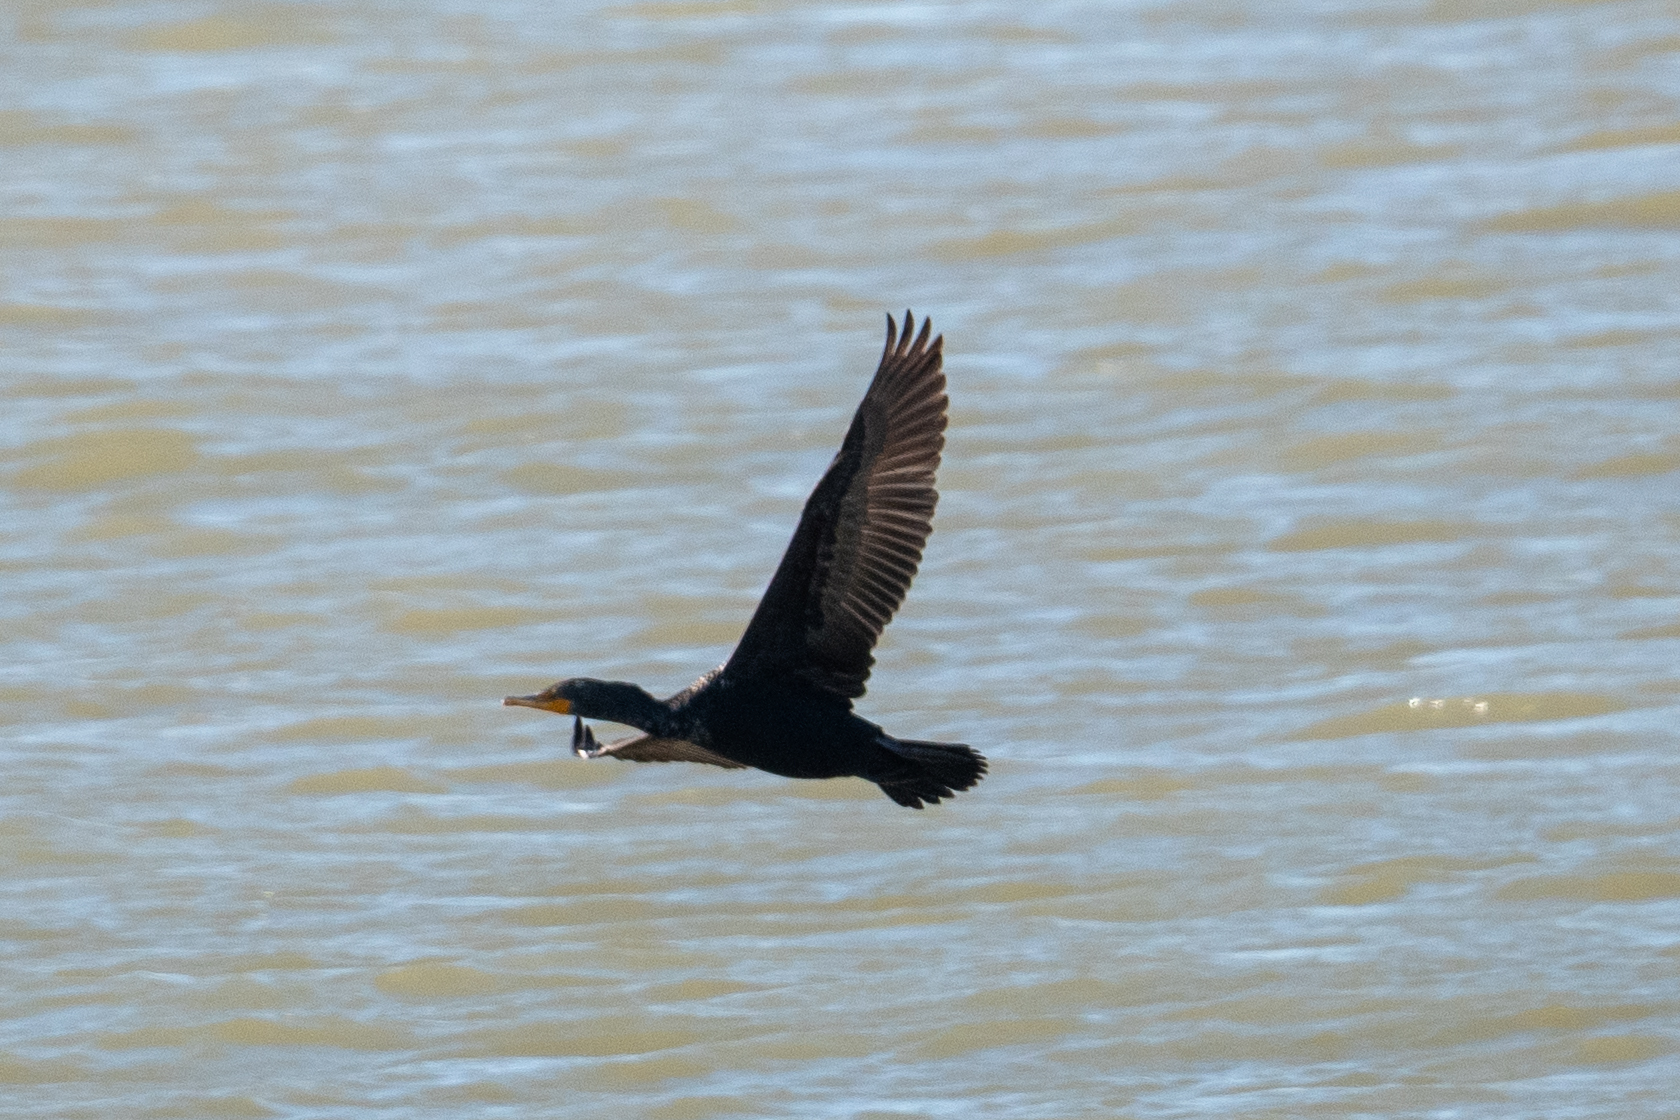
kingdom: Animalia
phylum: Chordata
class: Aves
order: Suliformes
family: Phalacrocoracidae
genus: Phalacrocorax
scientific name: Phalacrocorax auritus
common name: Double-crested cormorant
